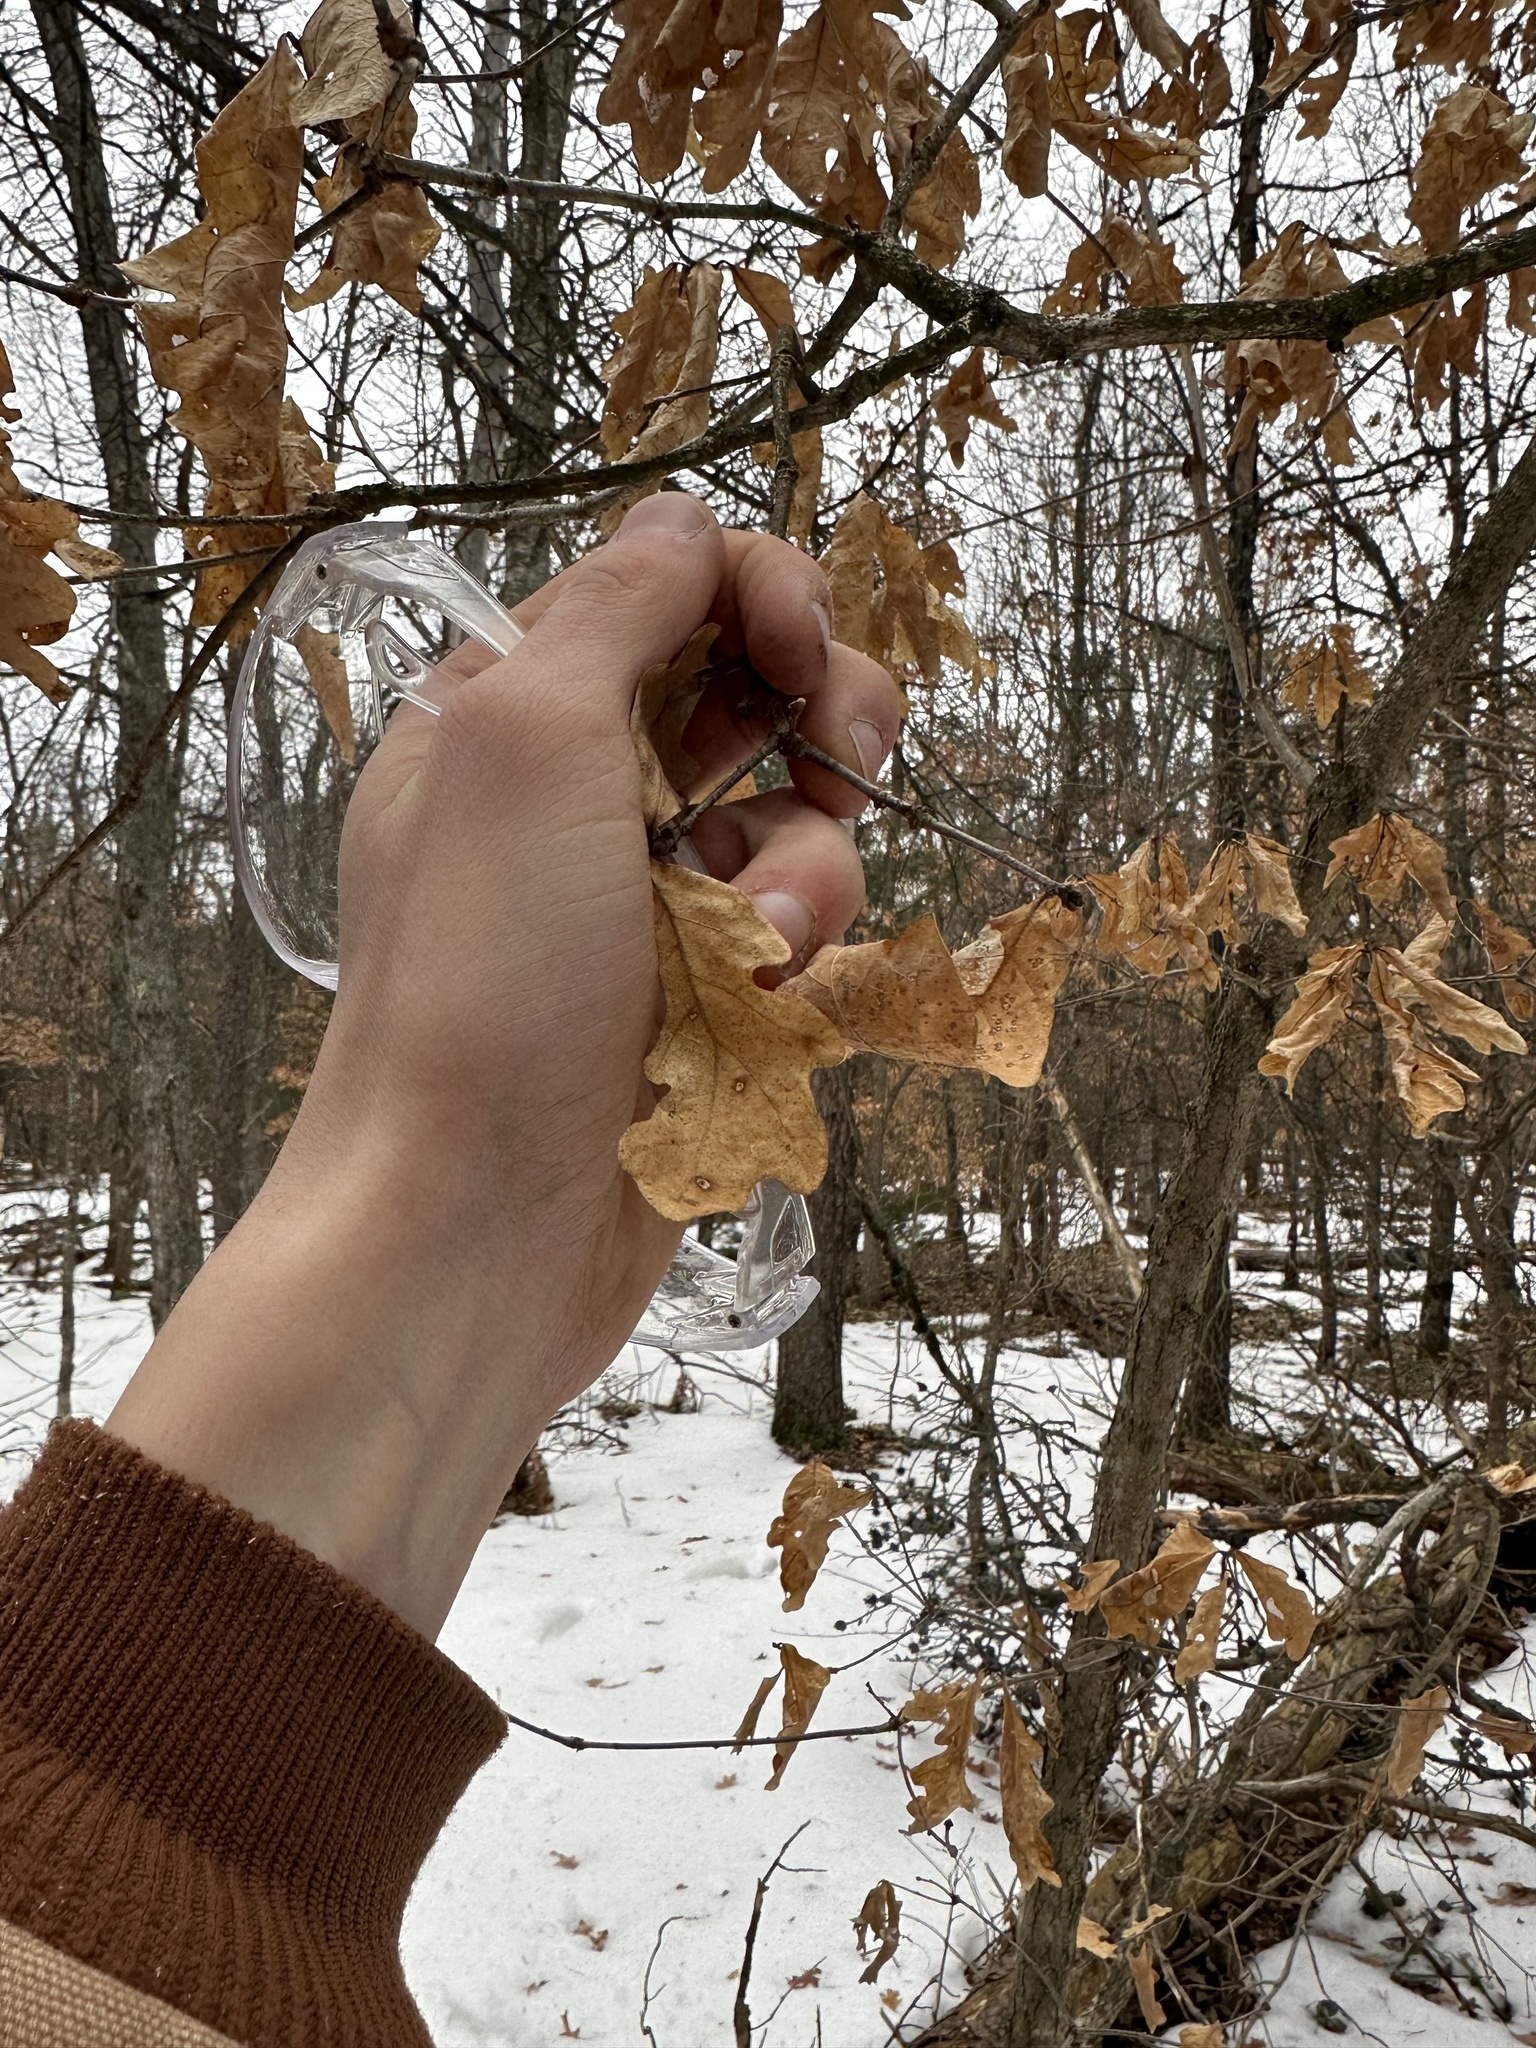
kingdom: Plantae
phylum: Tracheophyta
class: Magnoliopsida
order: Fagales
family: Fagaceae
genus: Quercus
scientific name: Quercus alba
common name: White oak
